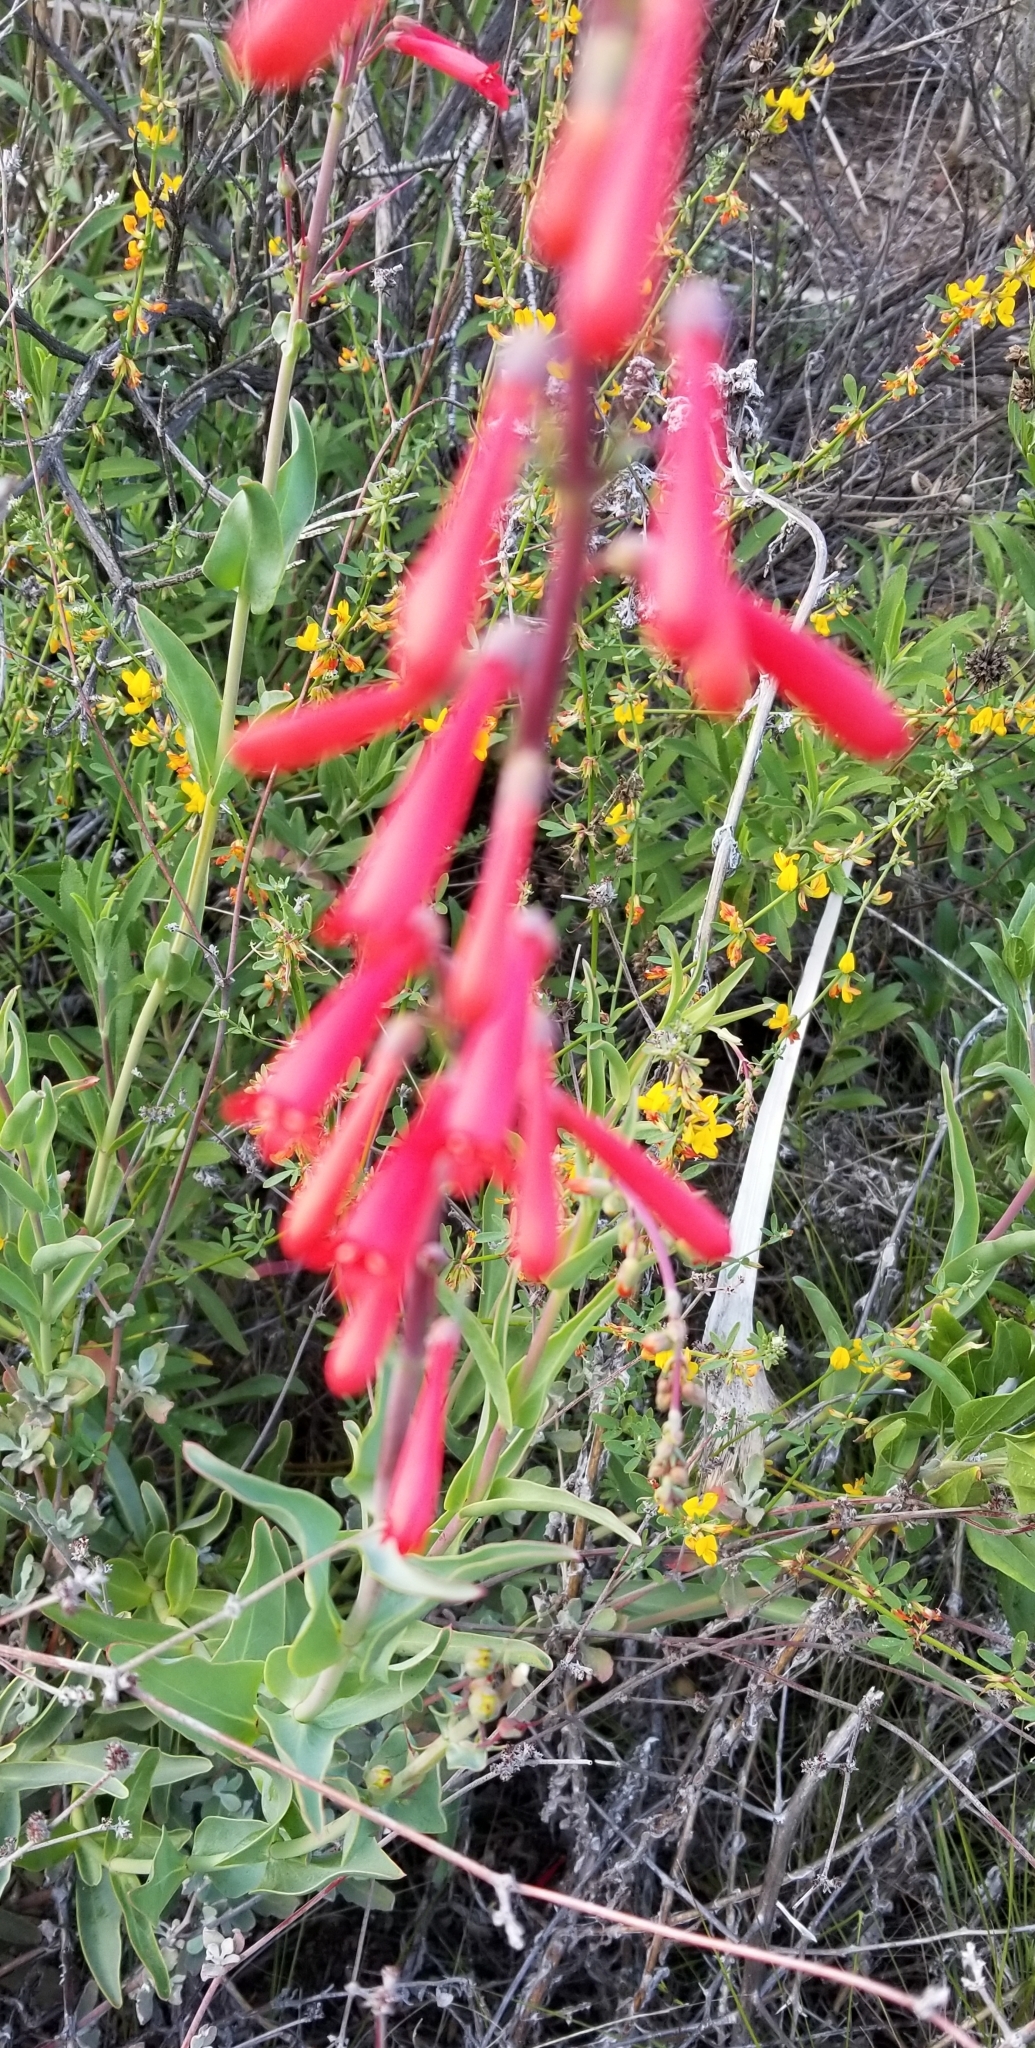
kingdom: Plantae
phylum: Tracheophyta
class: Magnoliopsida
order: Lamiales
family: Plantaginaceae
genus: Penstemon
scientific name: Penstemon centranthifolius
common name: Scarlet bugler
